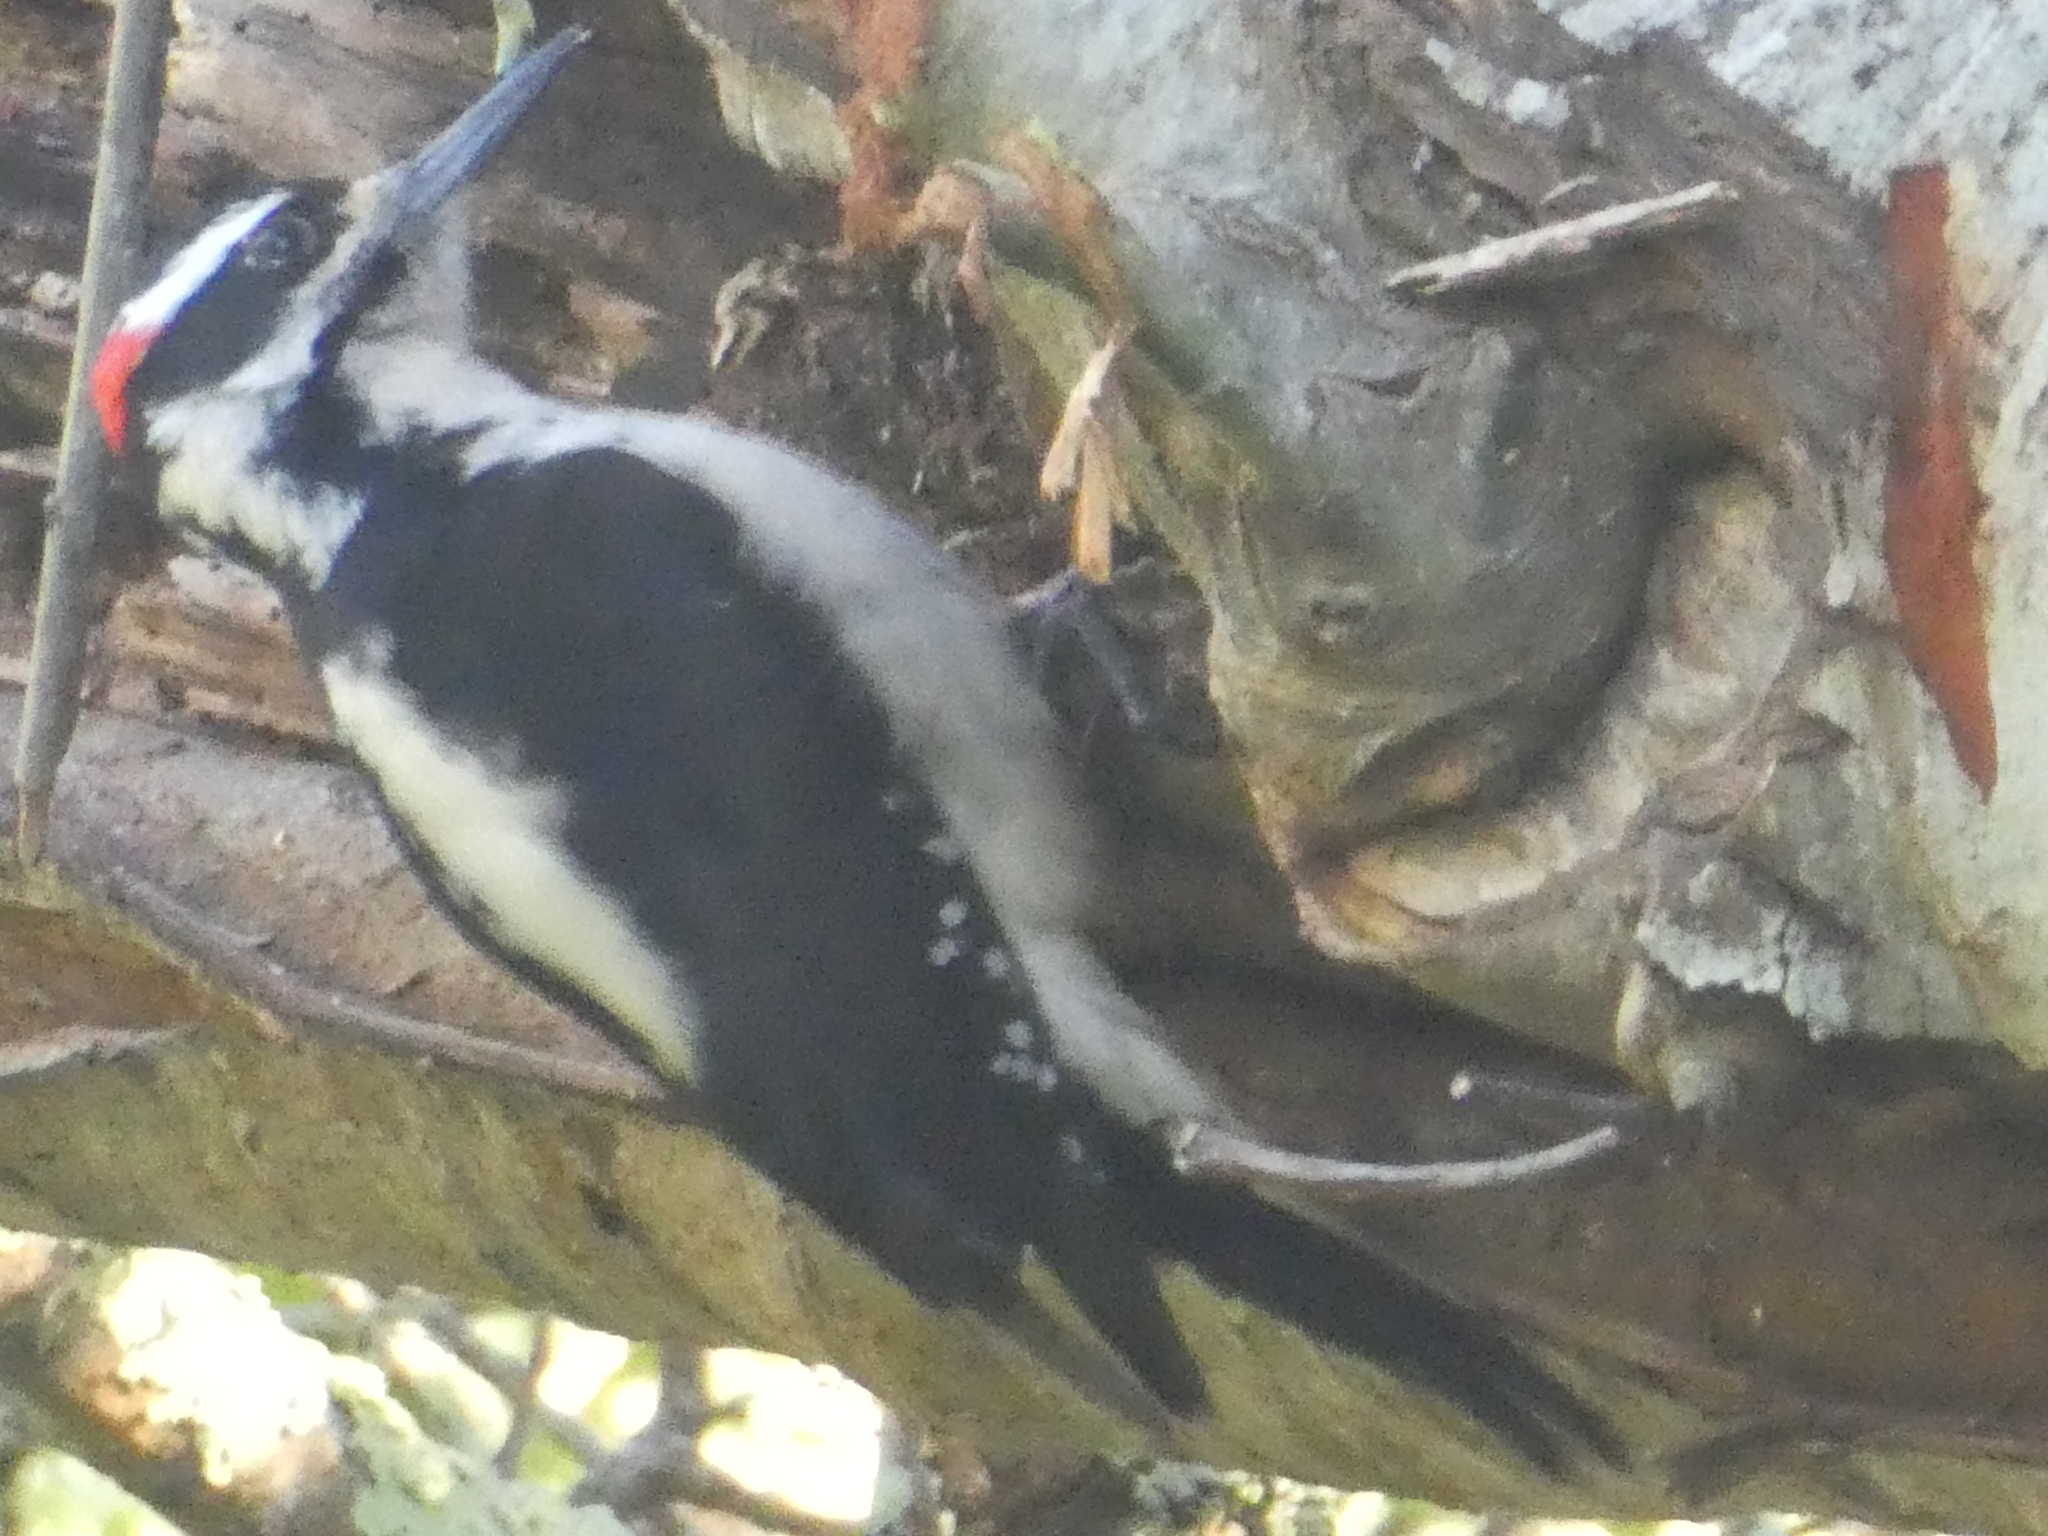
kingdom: Animalia
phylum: Chordata
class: Aves
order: Piciformes
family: Picidae
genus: Leuconotopicus
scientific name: Leuconotopicus villosus
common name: Hairy woodpecker
